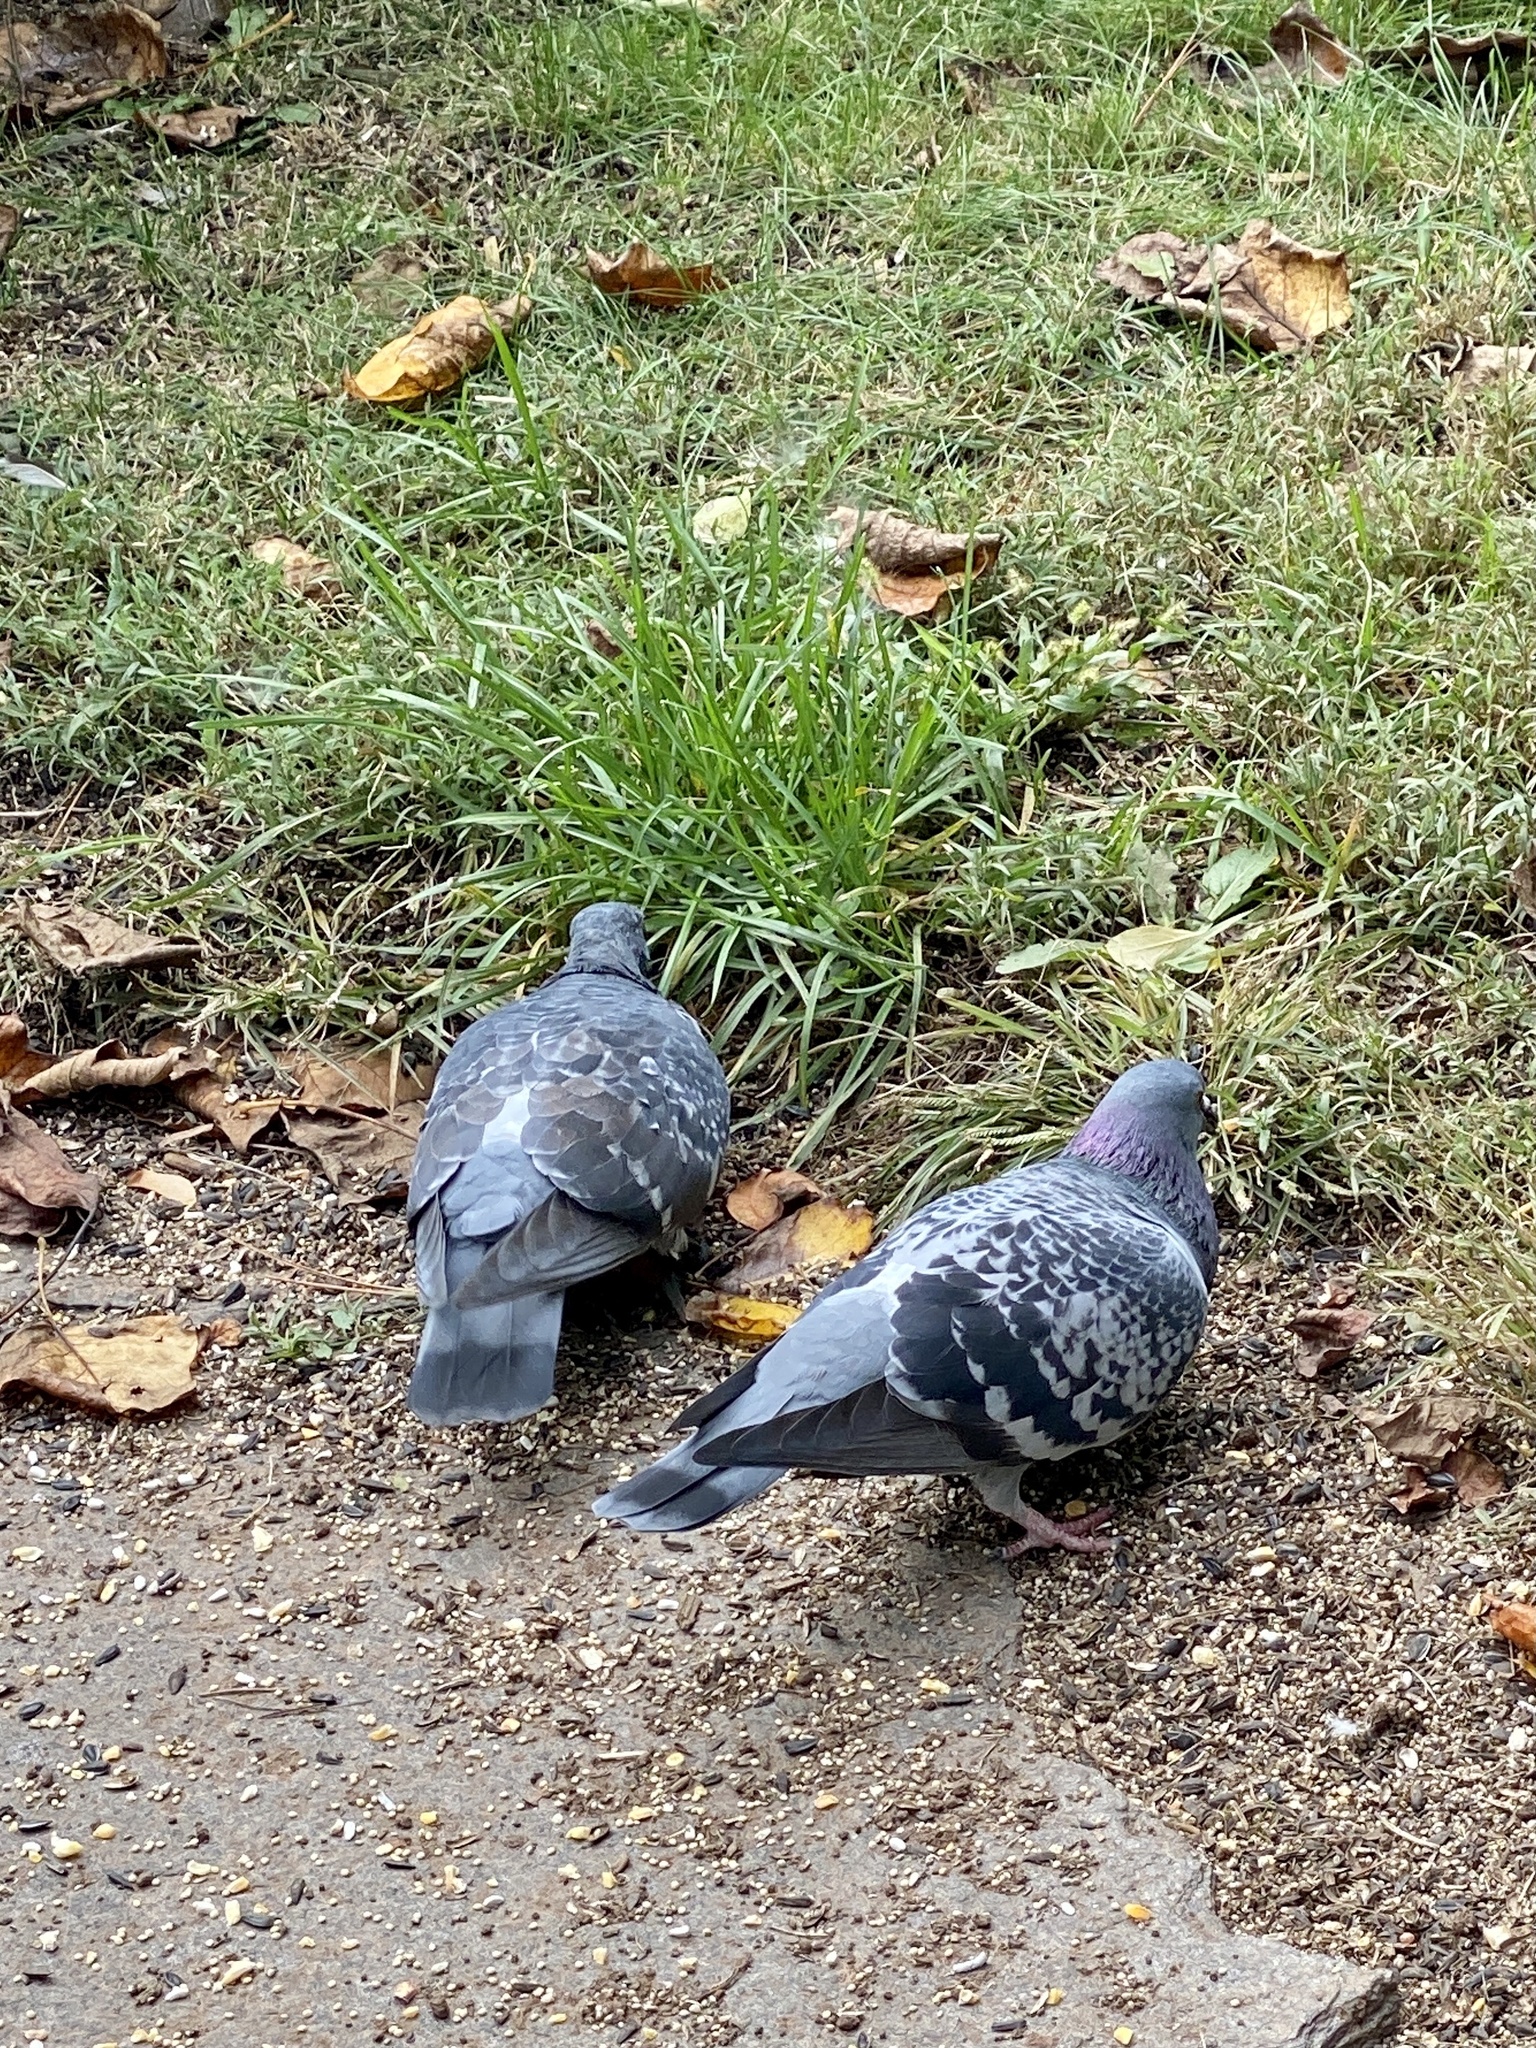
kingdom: Animalia
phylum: Chordata
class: Aves
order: Columbiformes
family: Columbidae
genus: Columba
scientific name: Columba livia
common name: Rock pigeon
